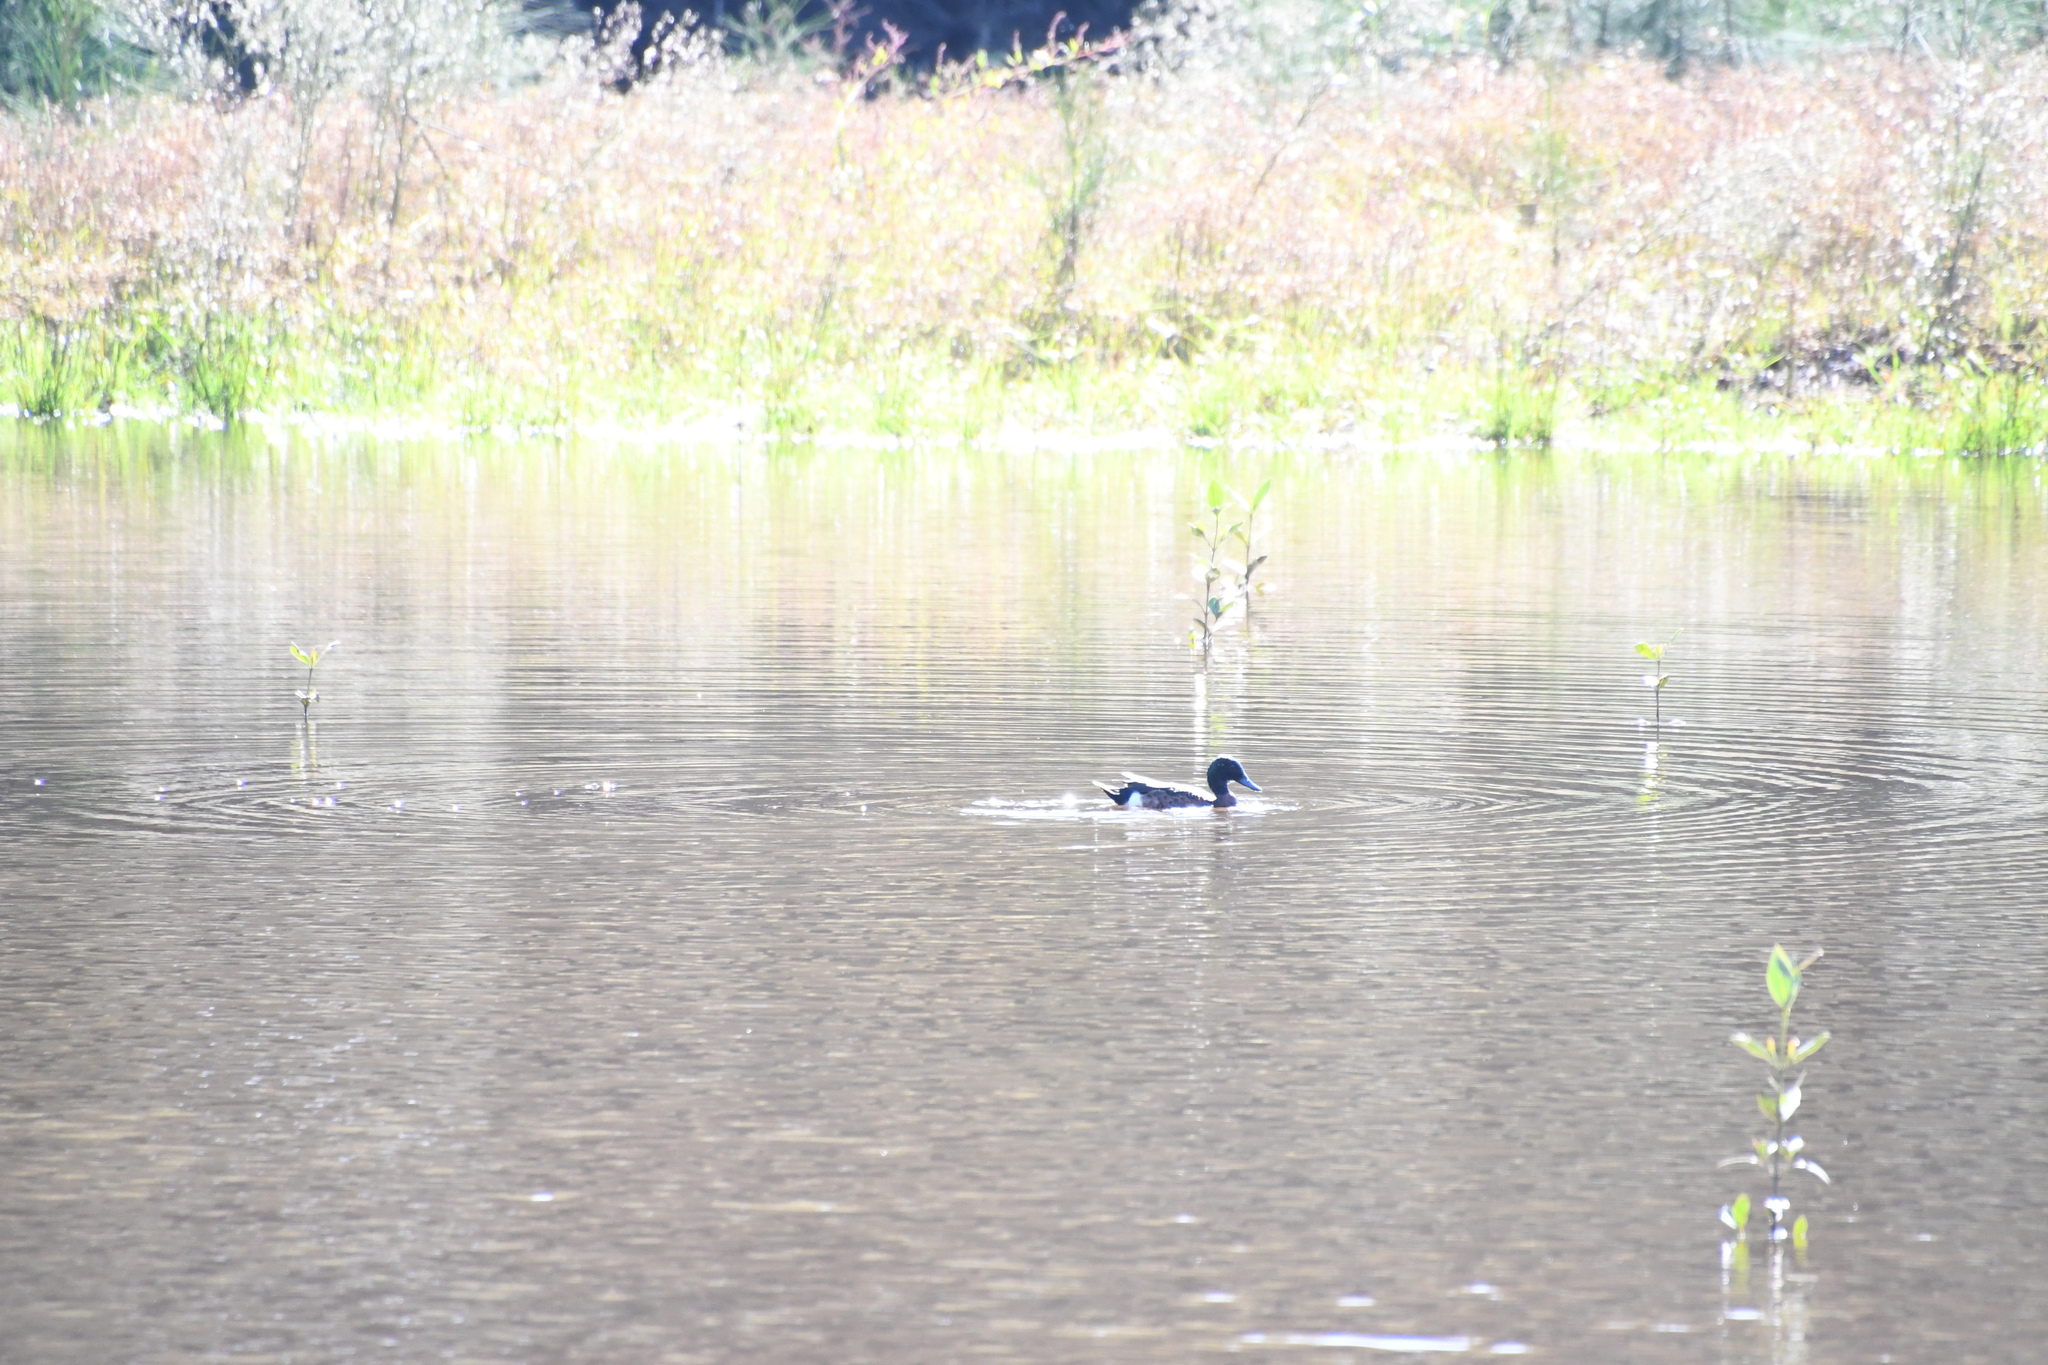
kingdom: Animalia
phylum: Chordata
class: Aves
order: Anseriformes
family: Anatidae
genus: Anas
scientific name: Anas castanea
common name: Chestnut teal
